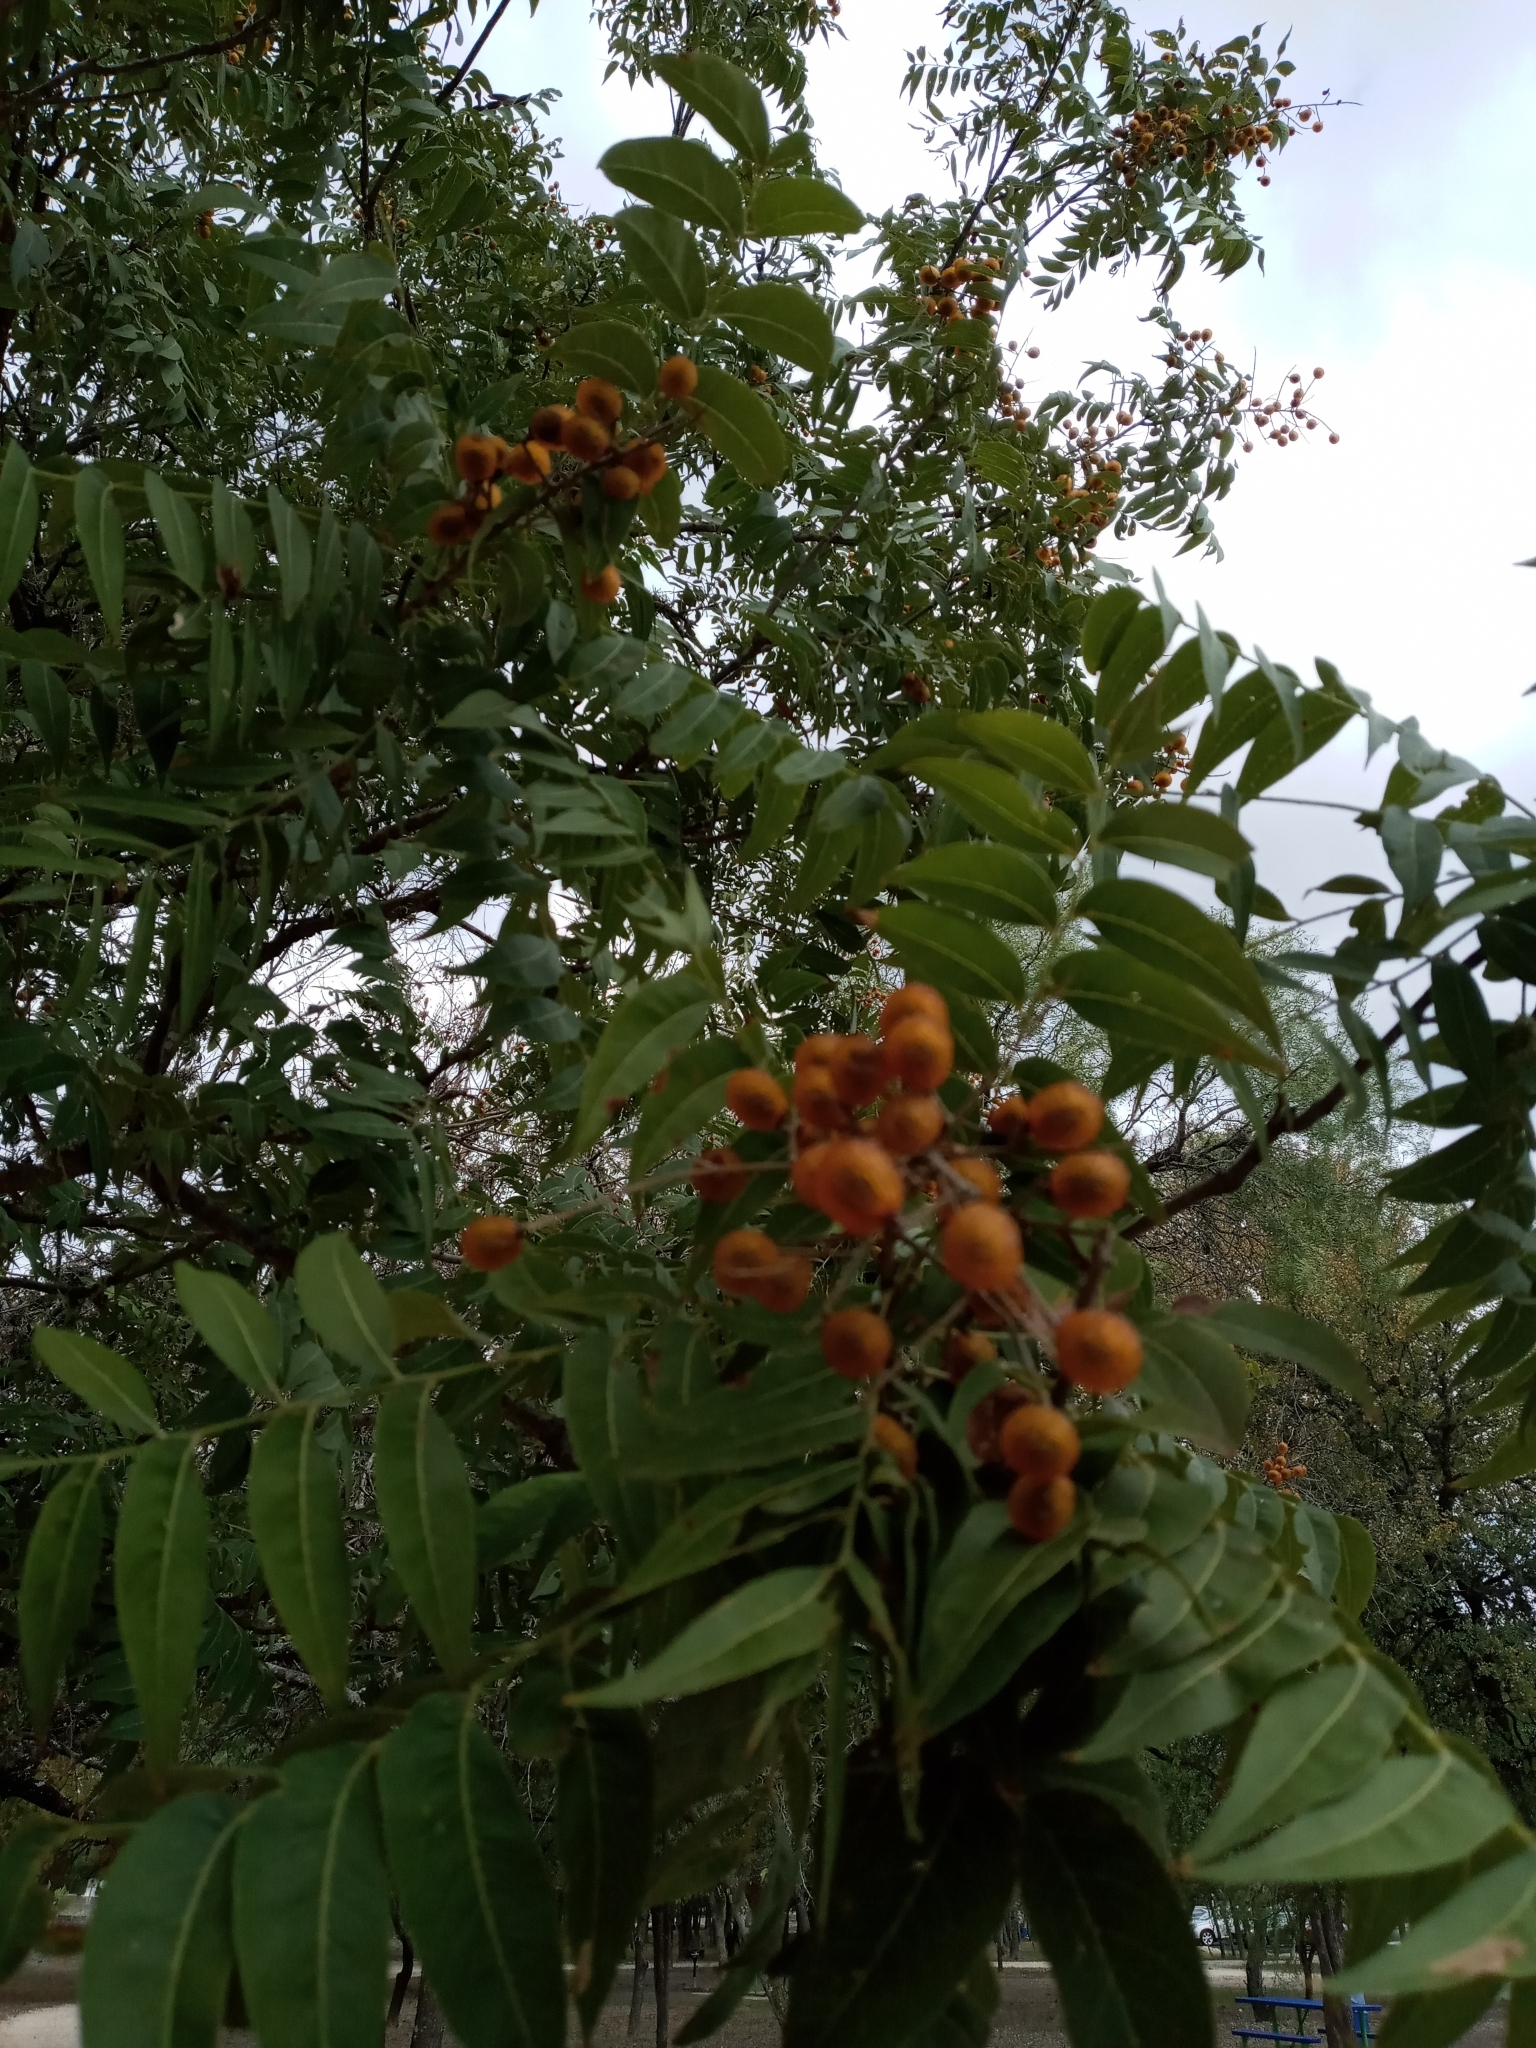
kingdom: Plantae
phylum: Tracheophyta
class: Magnoliopsida
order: Sapindales
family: Sapindaceae
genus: Sapindus
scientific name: Sapindus drummondii
